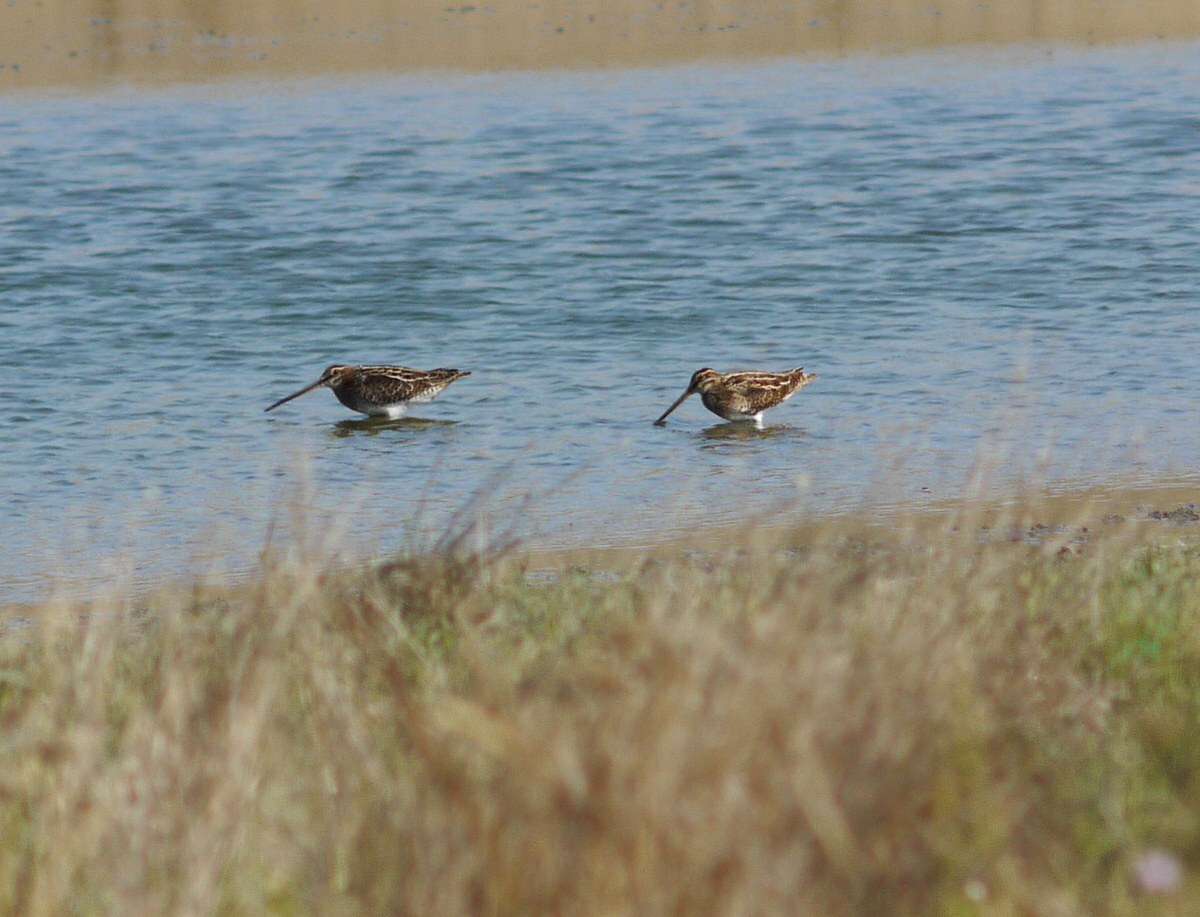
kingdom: Animalia
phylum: Chordata
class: Aves
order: Charadriiformes
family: Scolopacidae
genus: Gallinago
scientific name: Gallinago gallinago
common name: Common snipe
